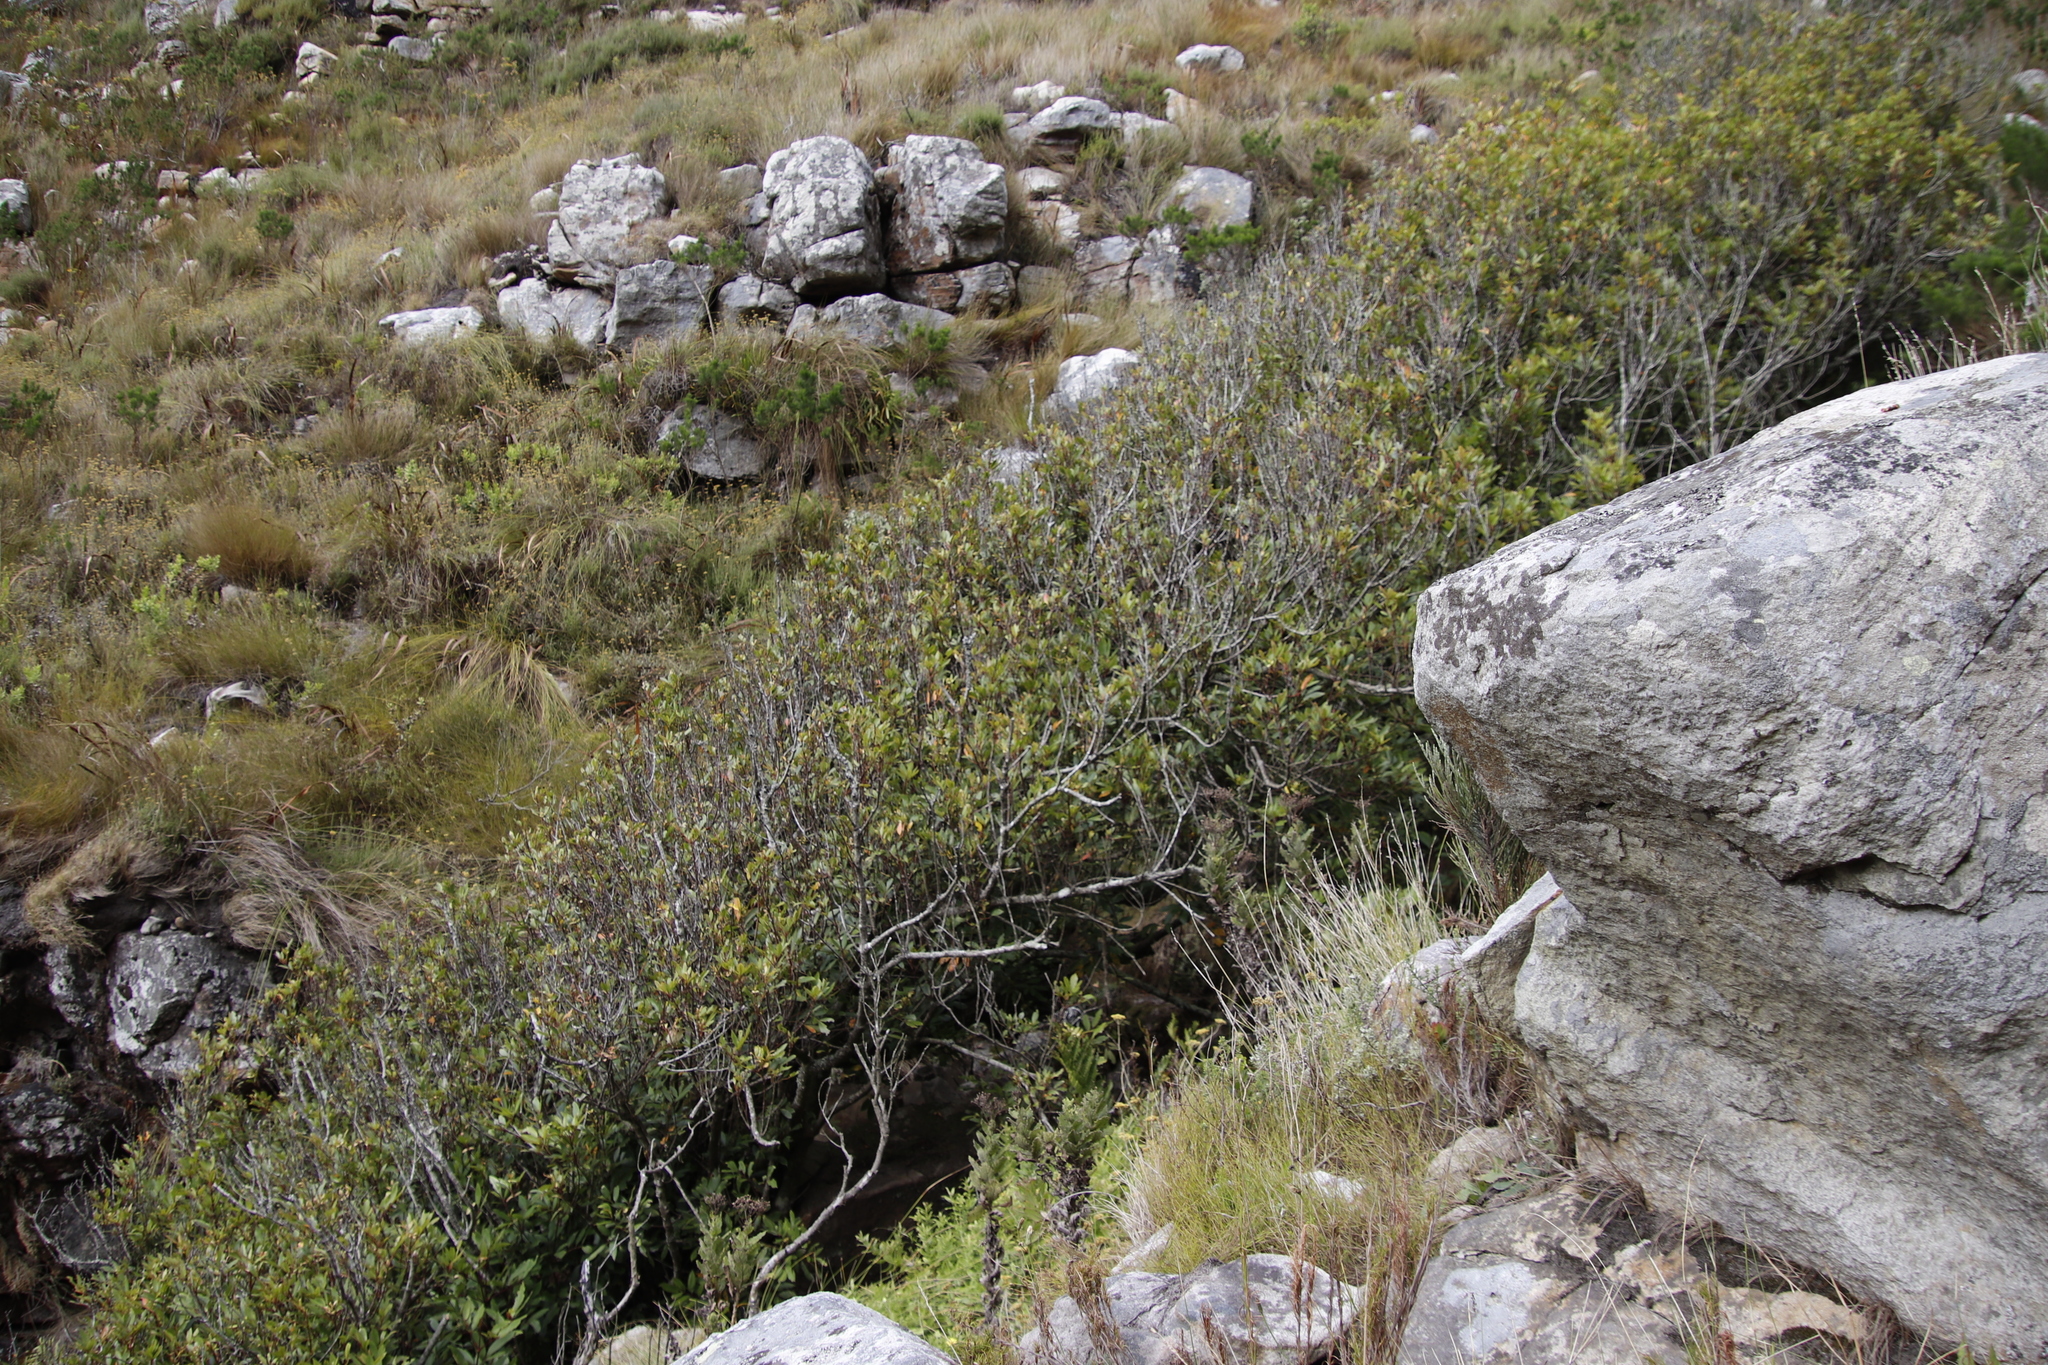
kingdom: Plantae
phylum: Tracheophyta
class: Magnoliopsida
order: Oxalidales
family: Cunoniaceae
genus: Cunonia
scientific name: Cunonia capensis
